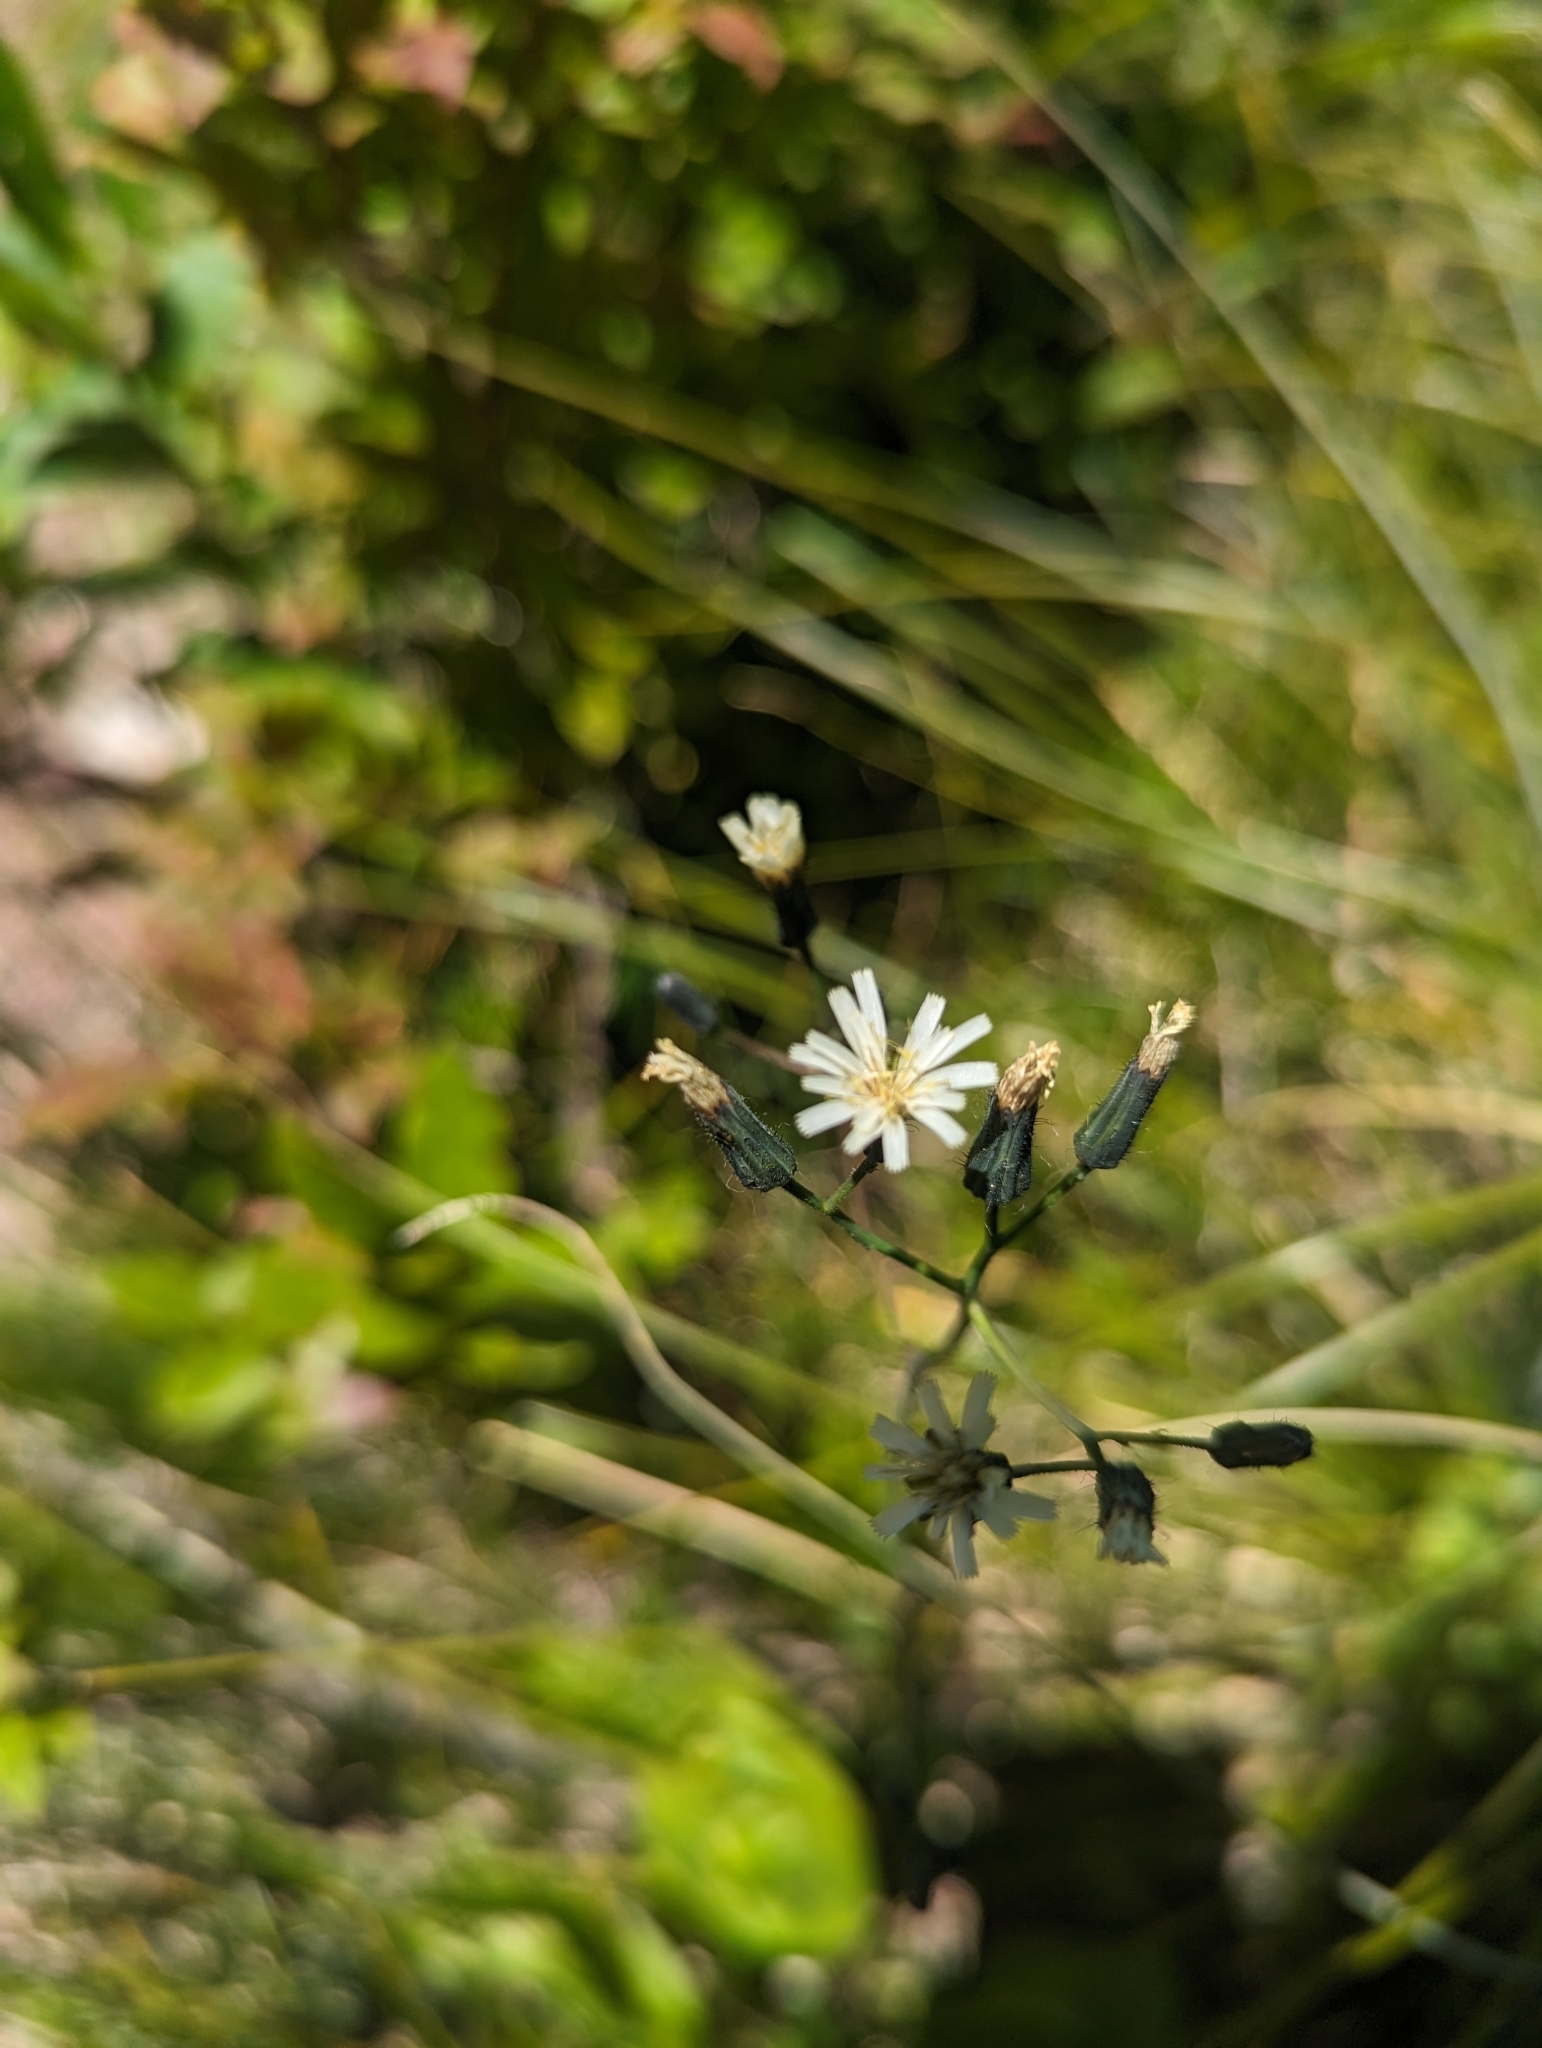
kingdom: Plantae
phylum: Tracheophyta
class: Magnoliopsida
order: Asterales
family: Asteraceae
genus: Hieracium
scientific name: Hieracium albiflorum
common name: White hawkweed
